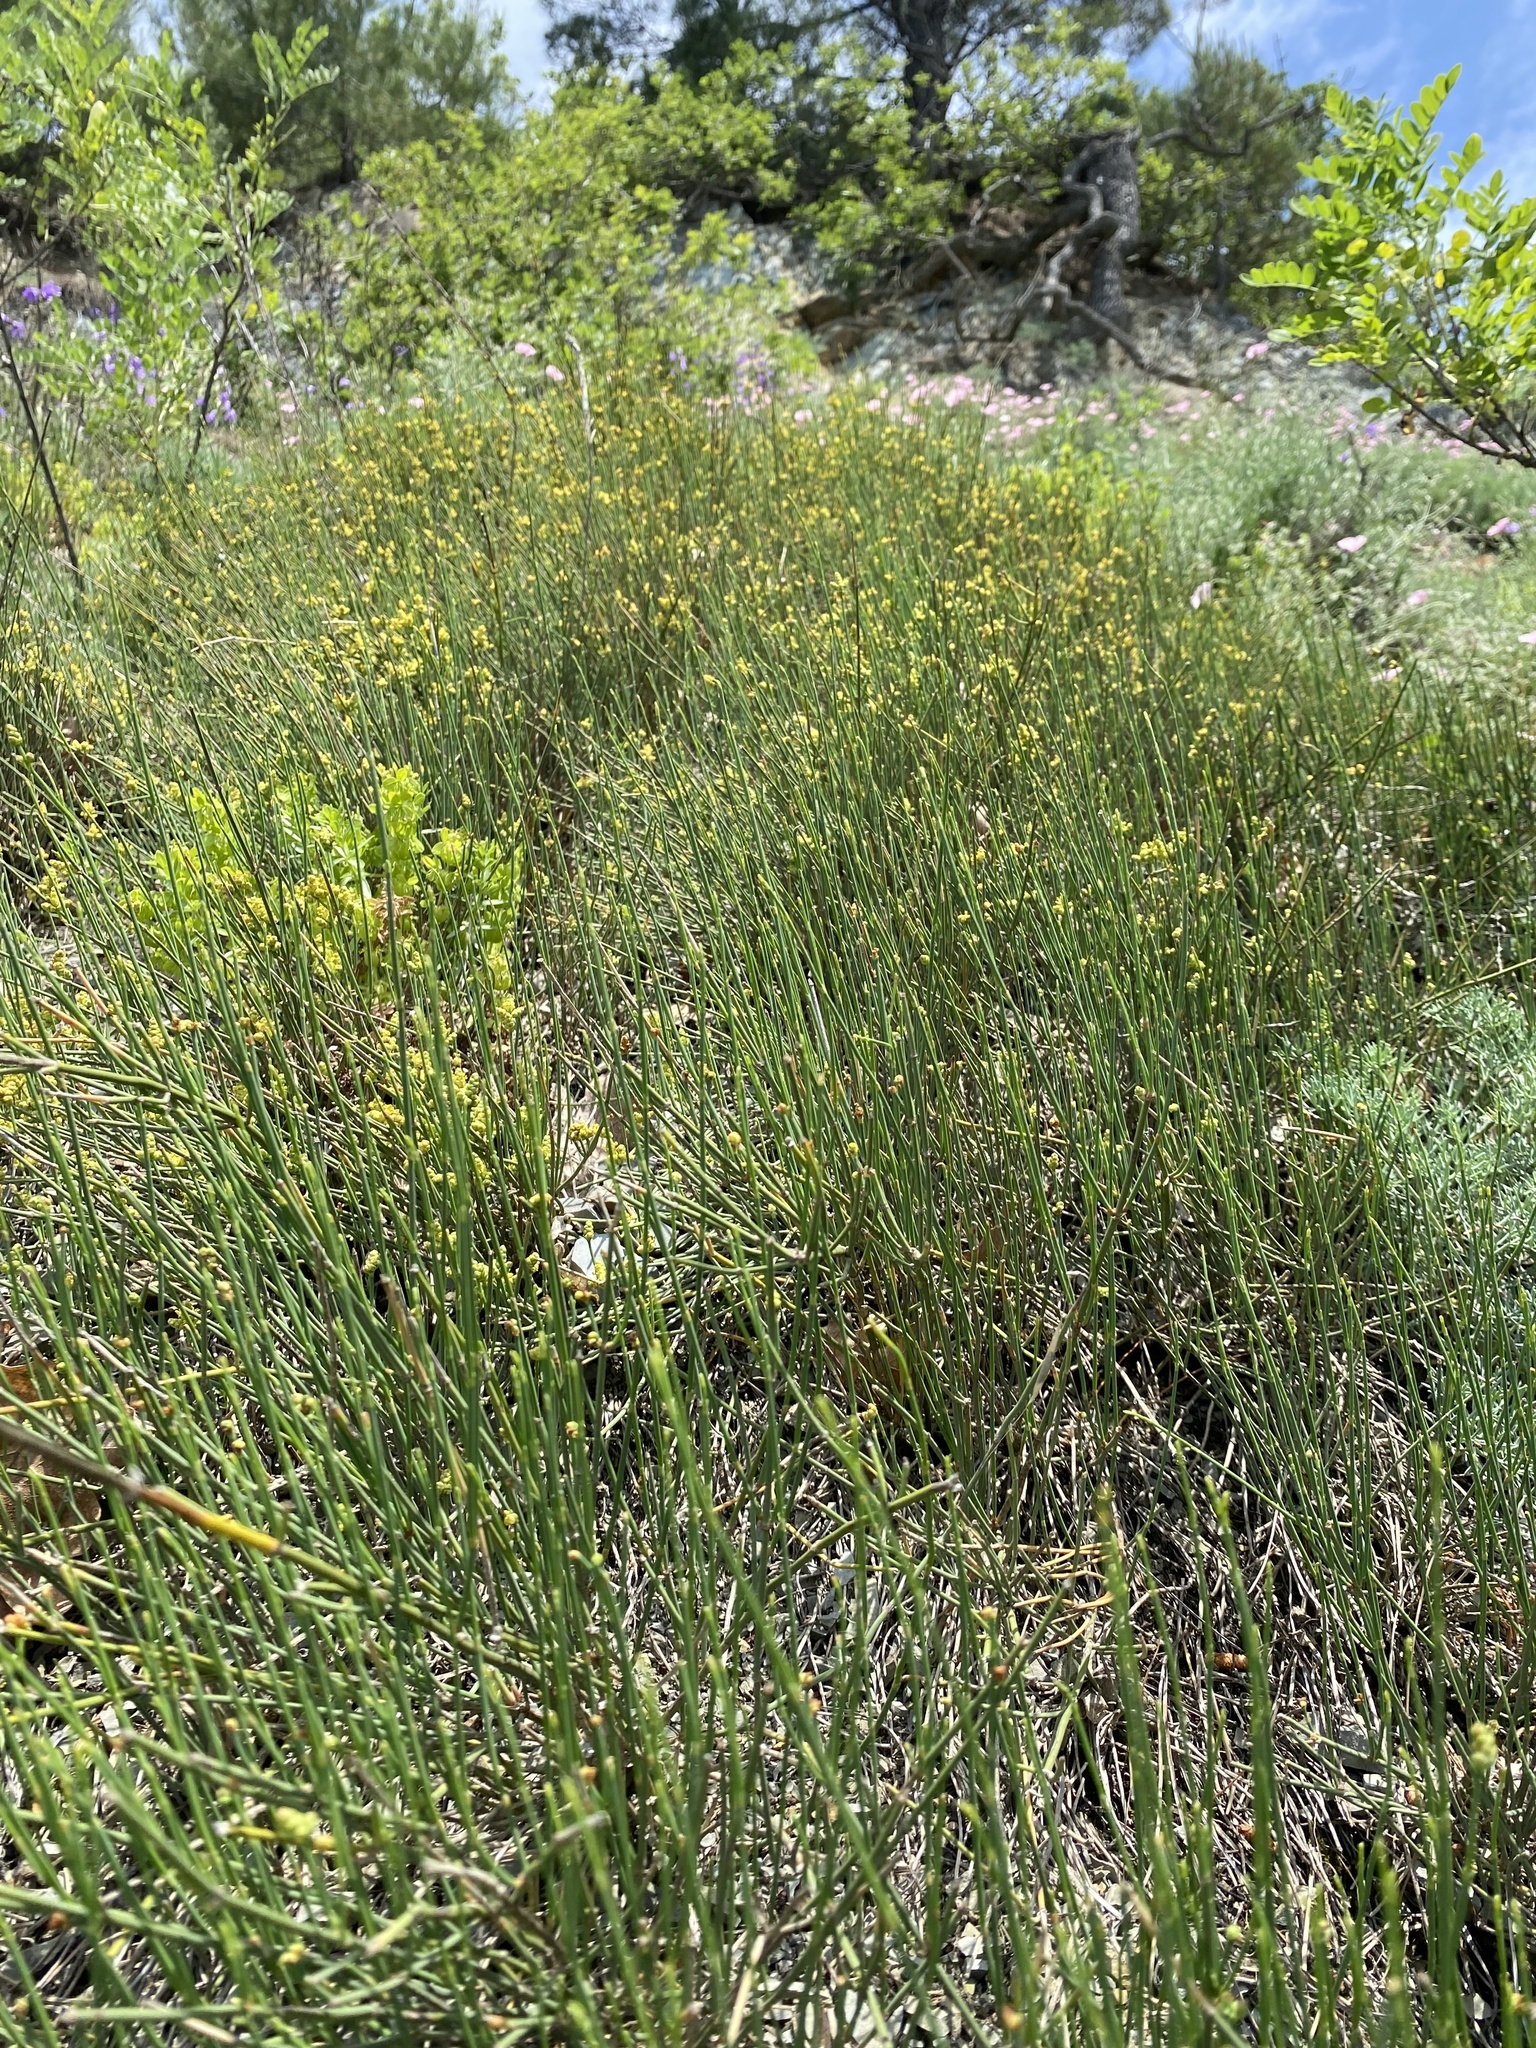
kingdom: Plantae
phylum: Tracheophyta
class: Gnetopsida
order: Ephedrales
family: Ephedraceae
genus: Ephedra
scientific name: Ephedra distachya
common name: Sea grape
